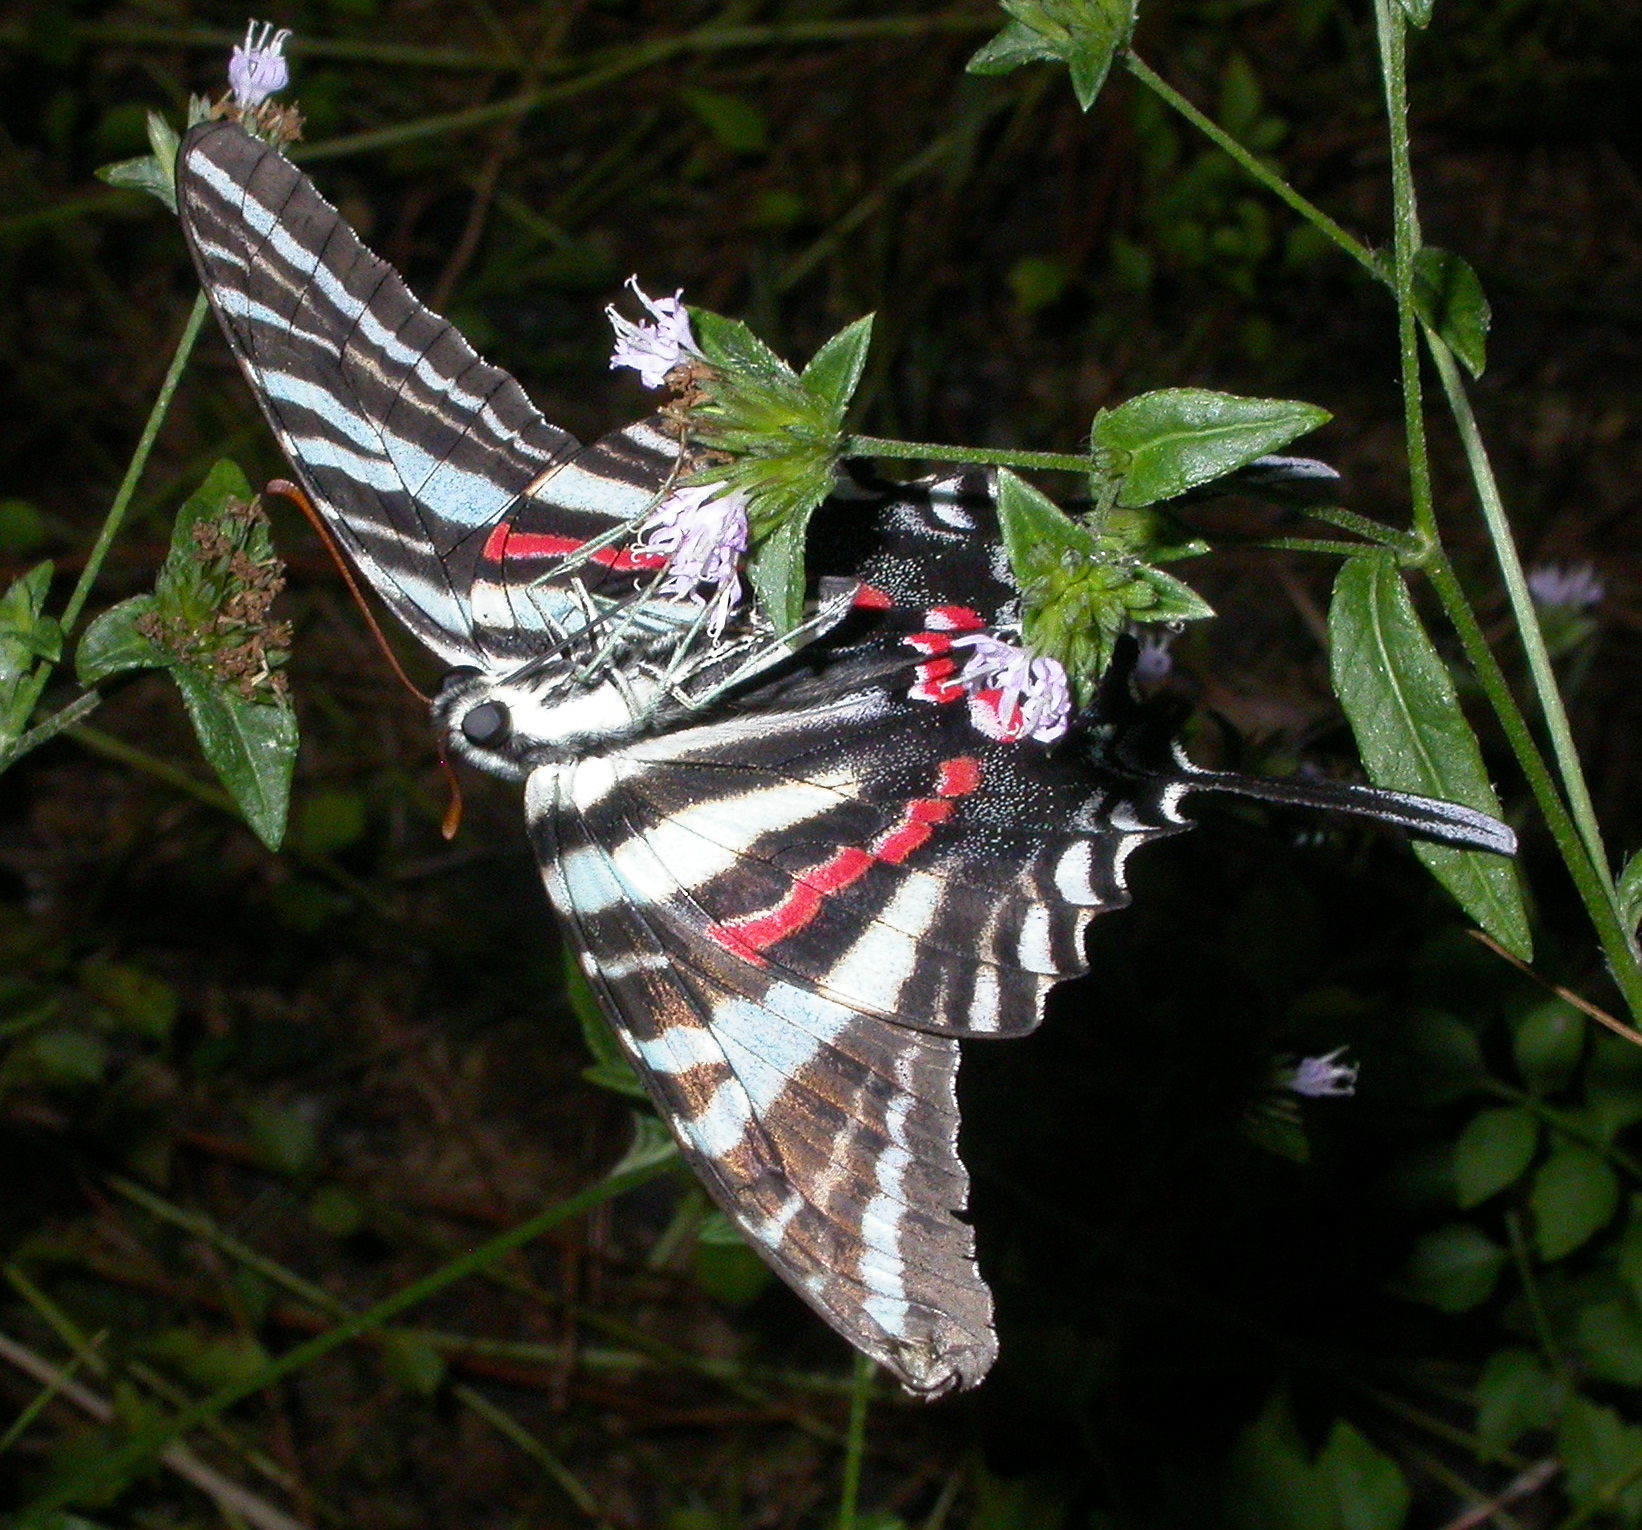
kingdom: Animalia
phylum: Arthropoda
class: Insecta
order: Lepidoptera
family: Papilionidae
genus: Protographium
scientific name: Protographium marcellus
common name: Zebra swallowtail
